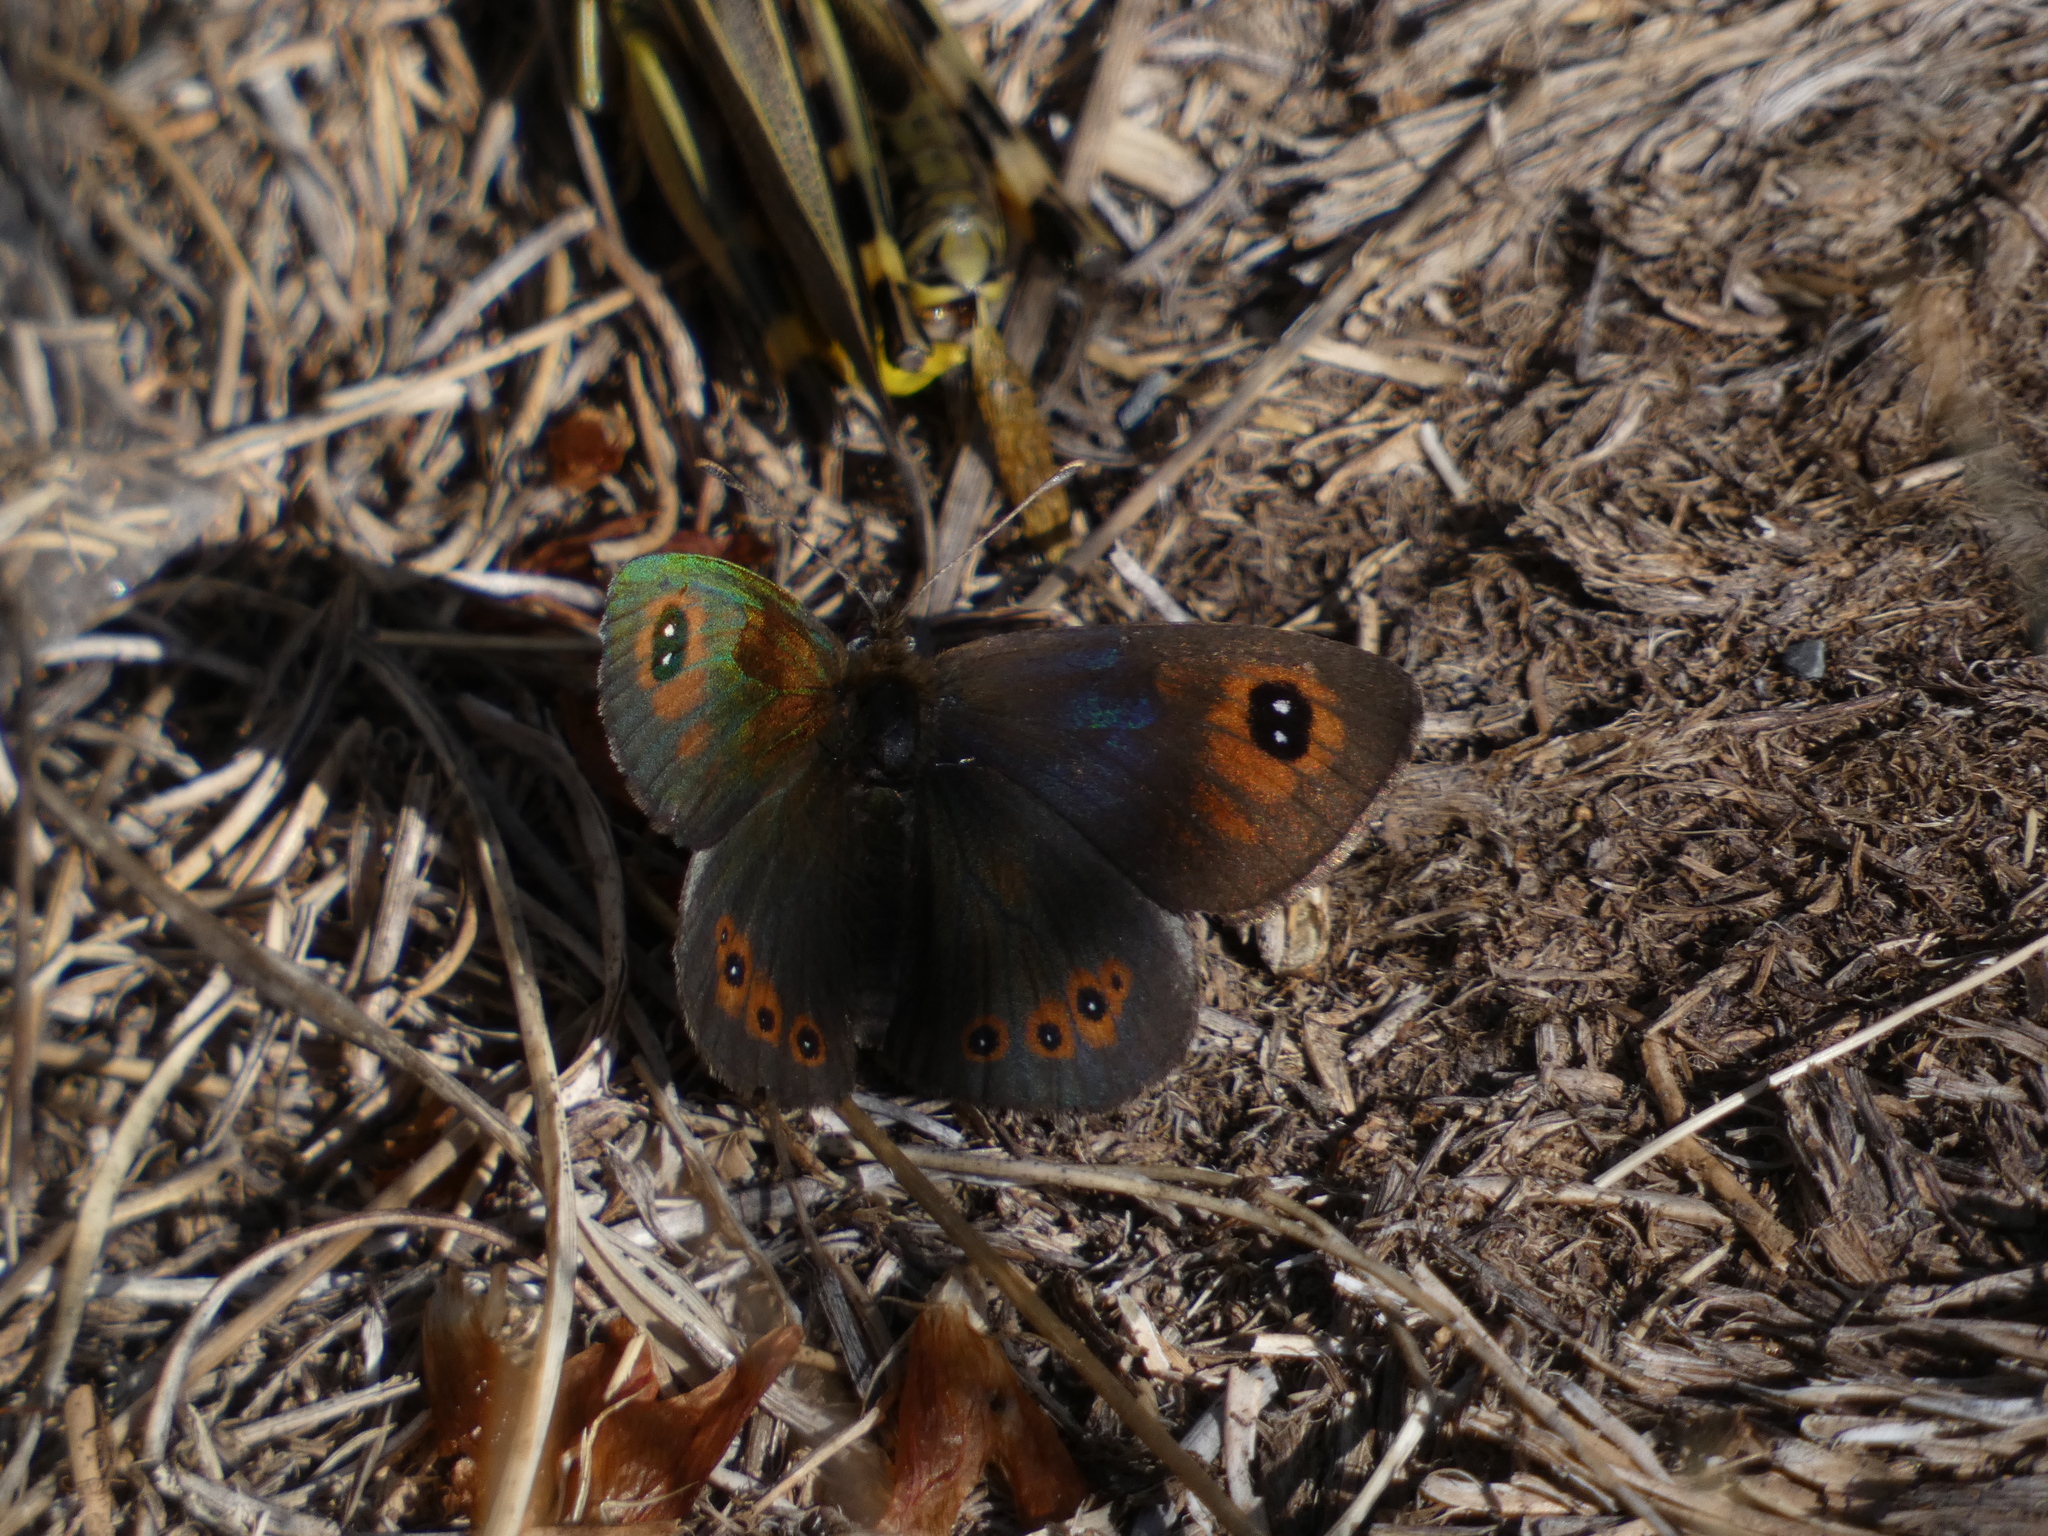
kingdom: Animalia
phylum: Arthropoda
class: Insecta
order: Lepidoptera
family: Nymphalidae
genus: Erebia
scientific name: Erebia tyndarus
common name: Swiss brassy ringlet
